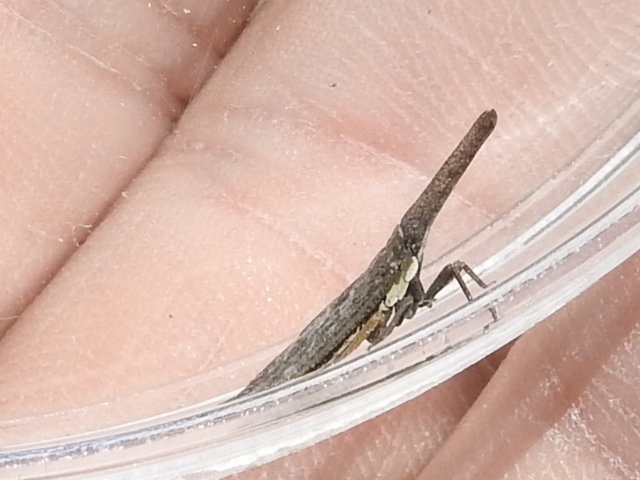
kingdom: Animalia
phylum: Arthropoda
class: Insecta
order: Hemiptera
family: Fulgoridae
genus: Rhabdocephala
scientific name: Rhabdocephala brunnea
